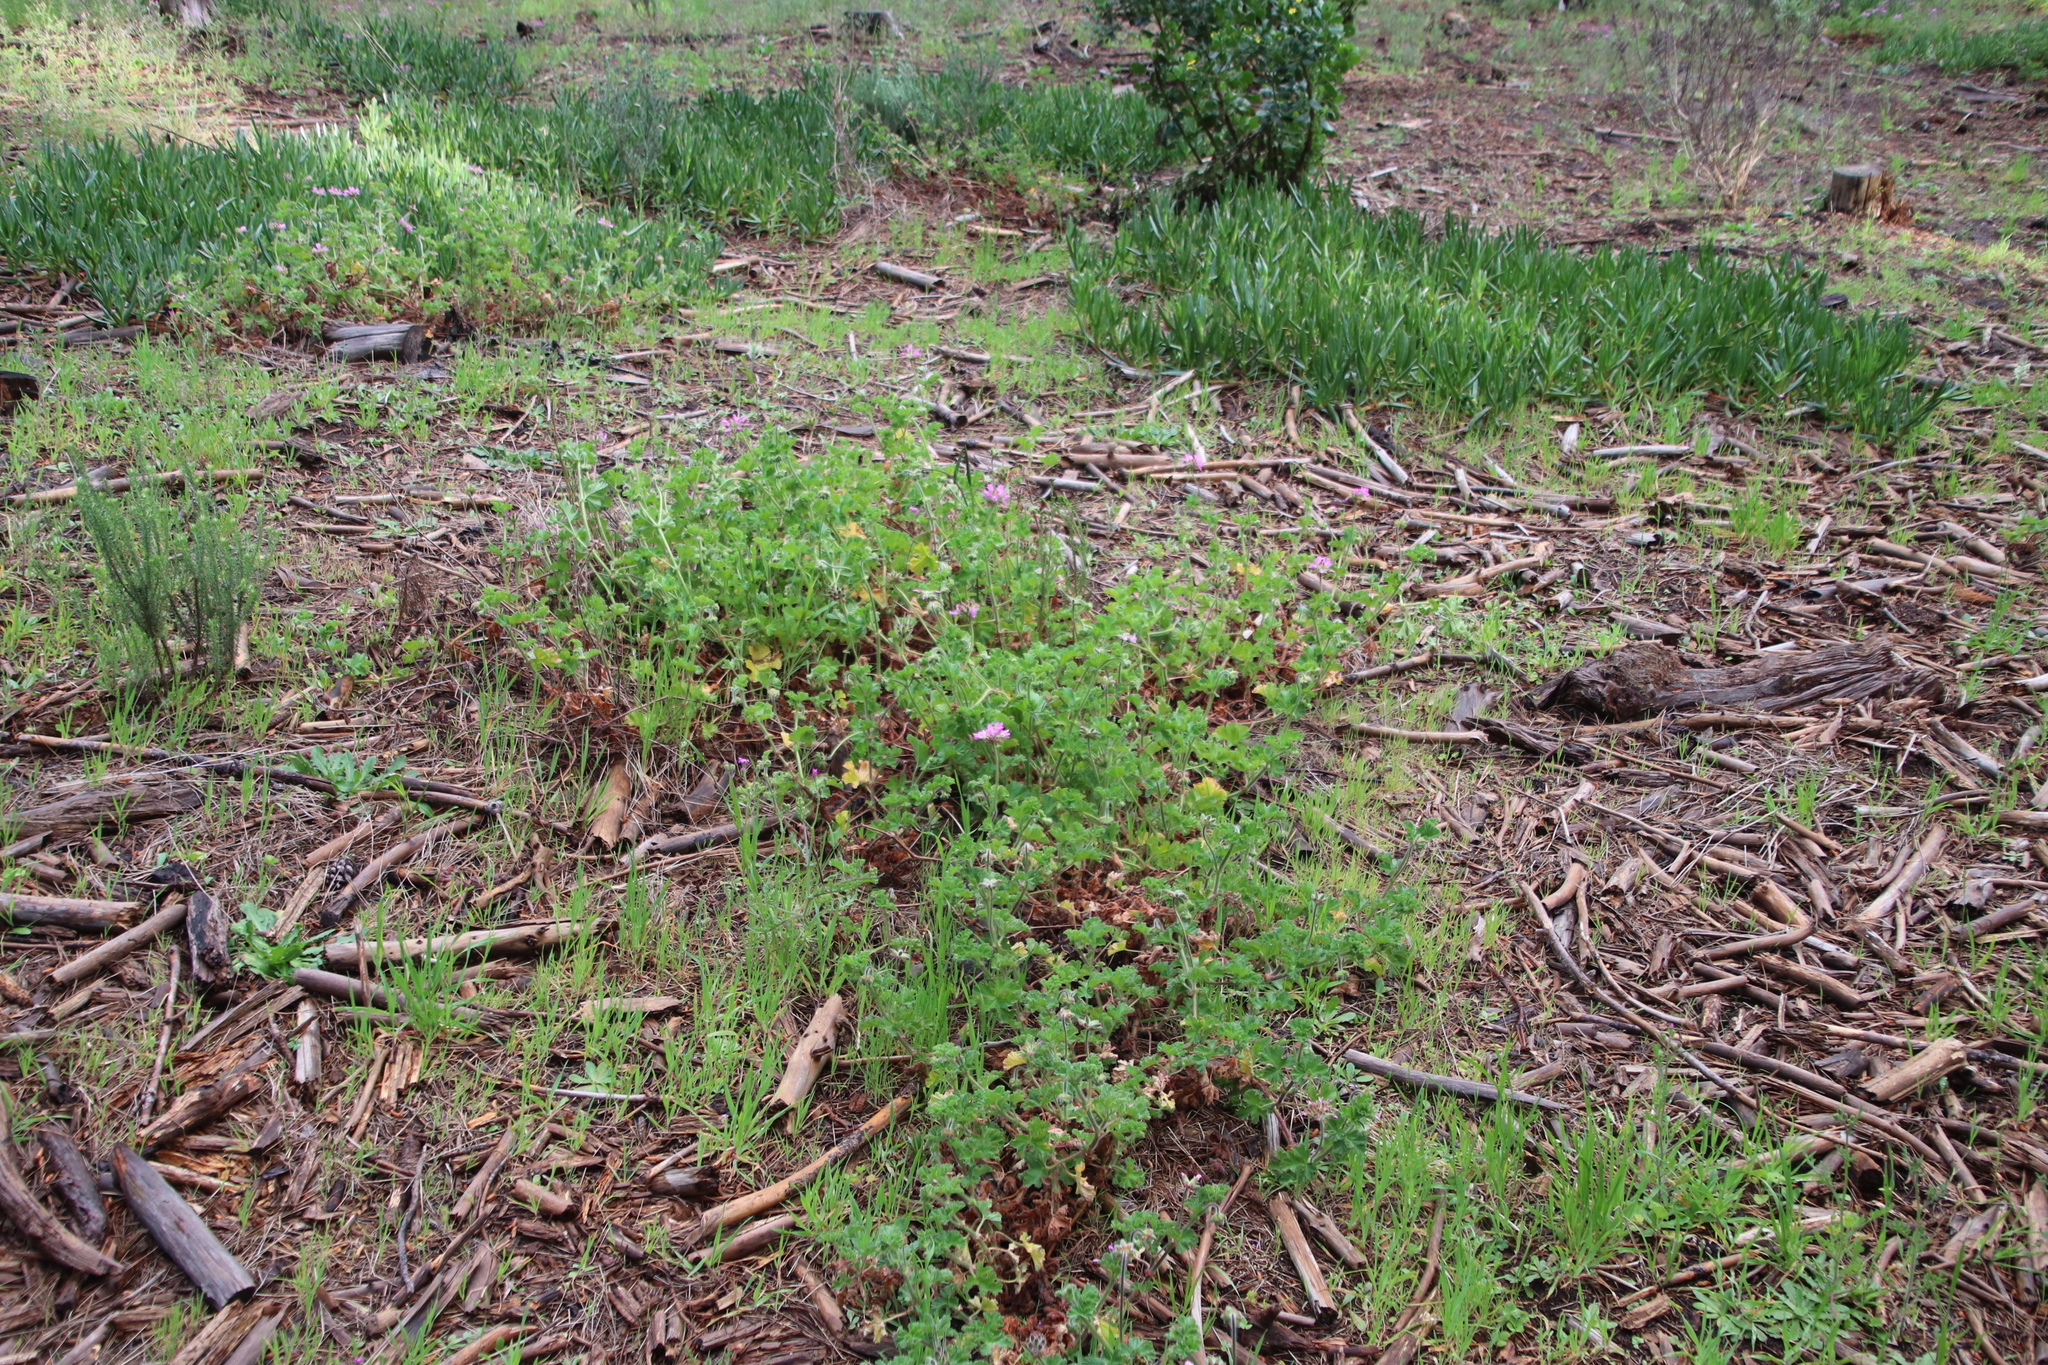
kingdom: Plantae
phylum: Tracheophyta
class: Magnoliopsida
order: Geraniales
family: Geraniaceae
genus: Pelargonium
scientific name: Pelargonium capitatum
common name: Rose scented geranium
